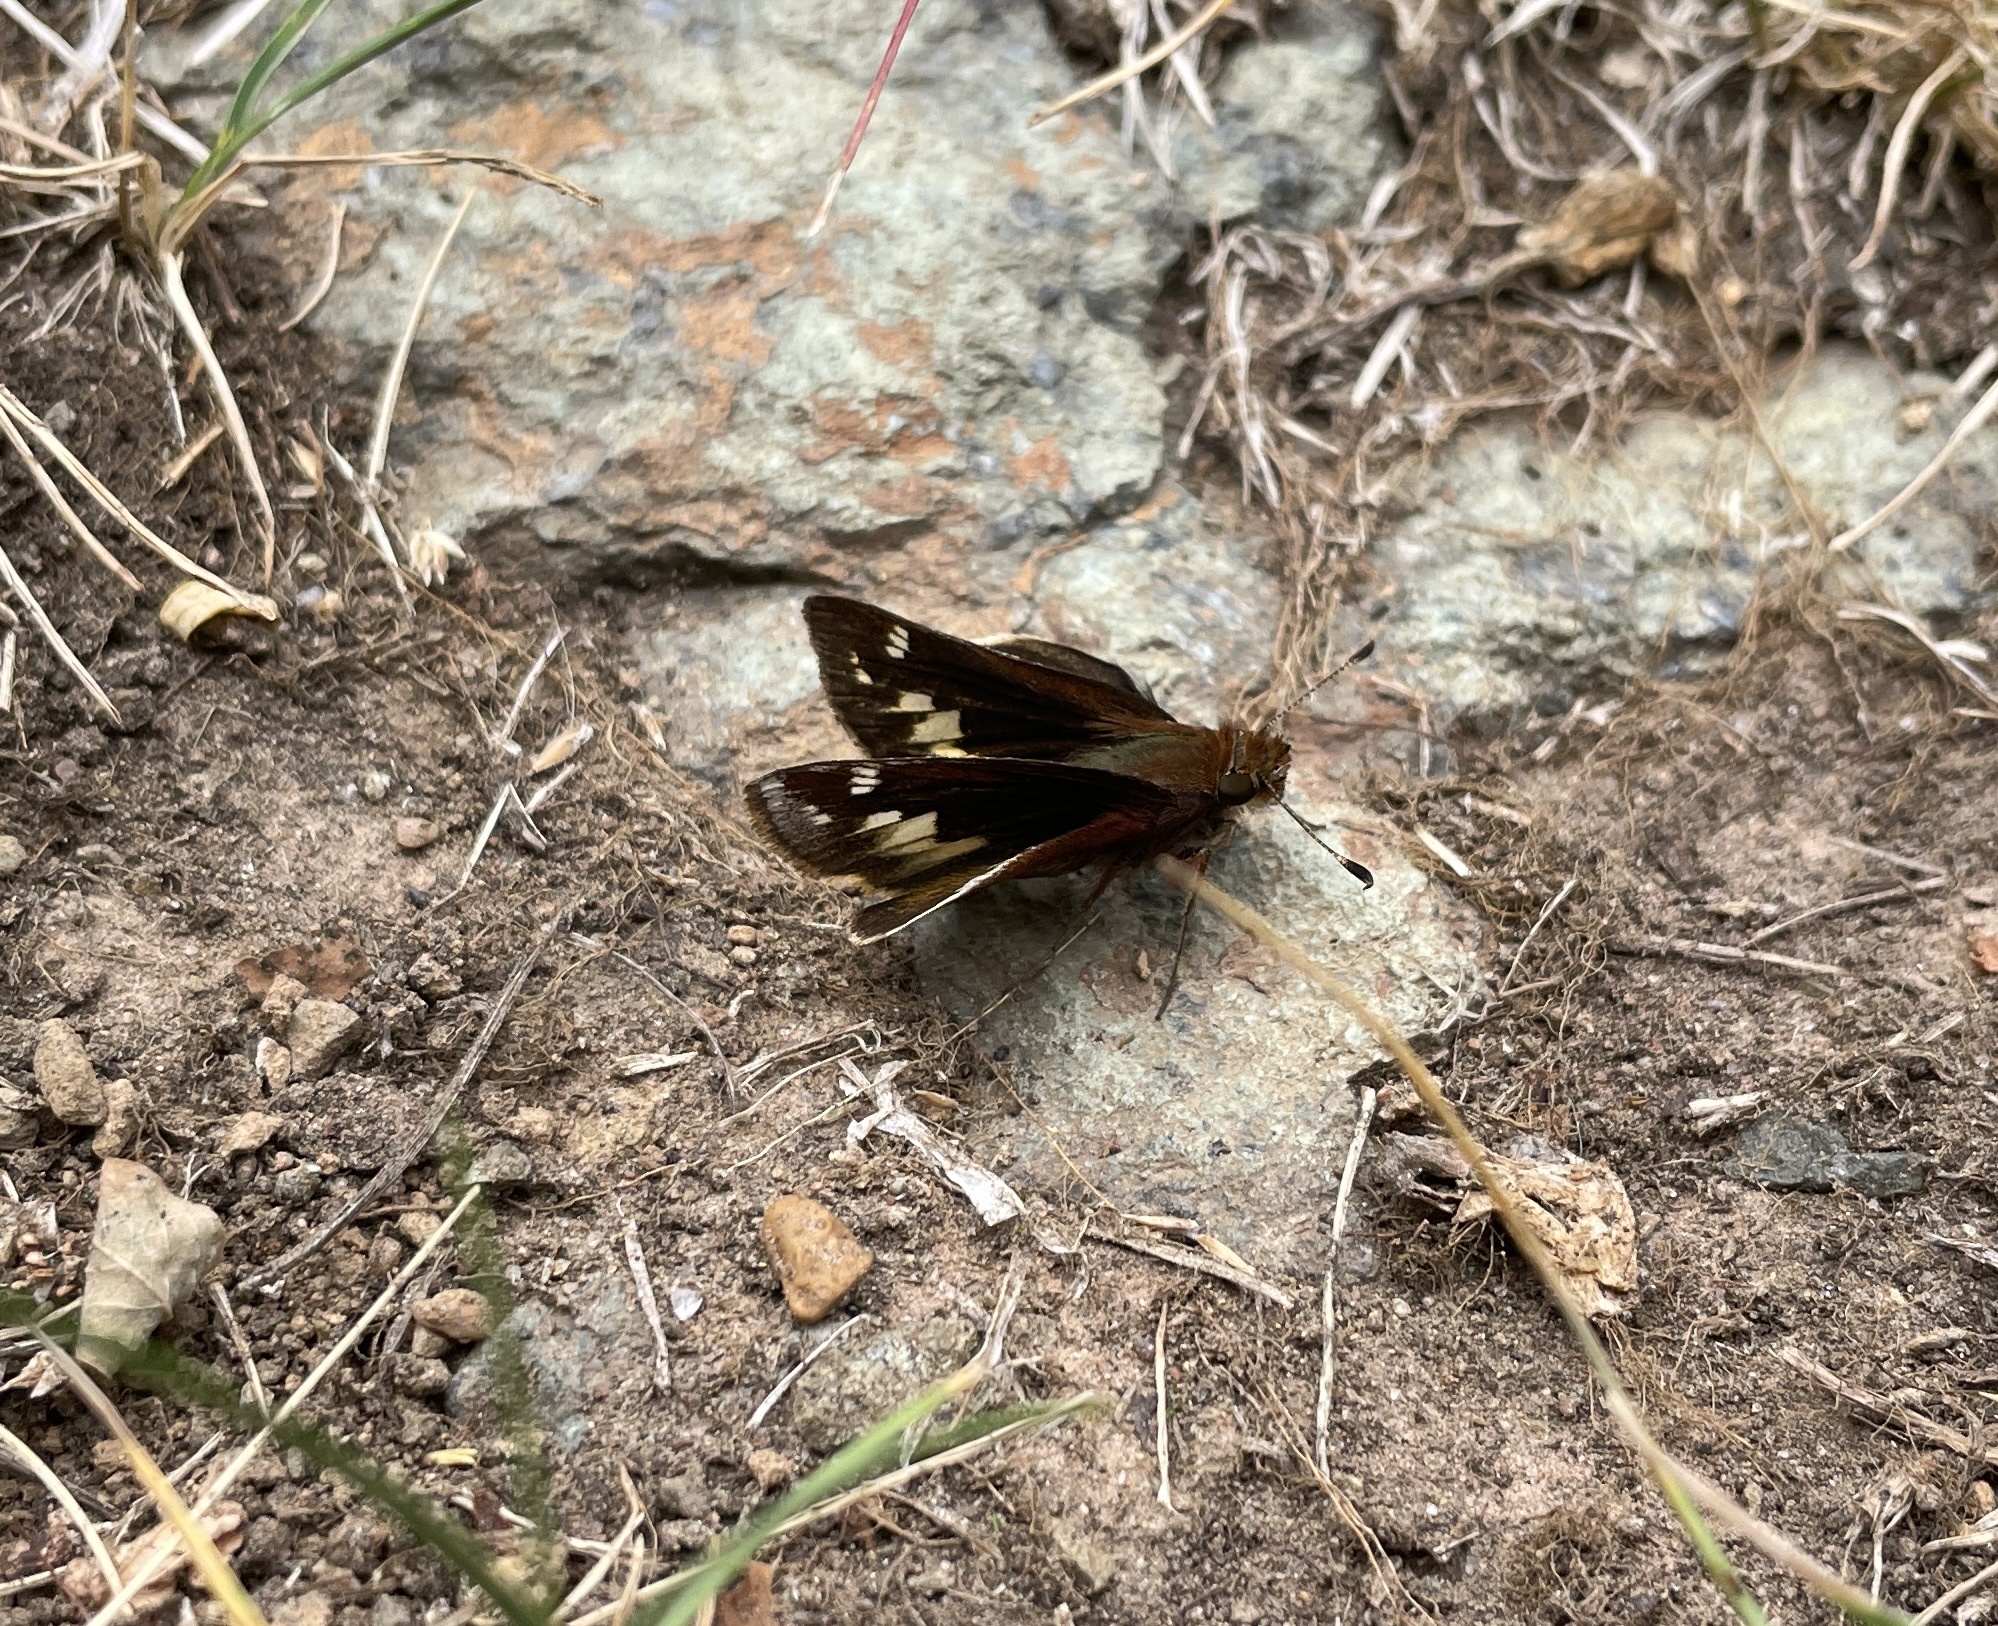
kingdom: Animalia
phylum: Arthropoda
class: Insecta
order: Lepidoptera
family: Hesperiidae
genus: Lon
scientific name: Lon zabulon
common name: Zabulon skipper
